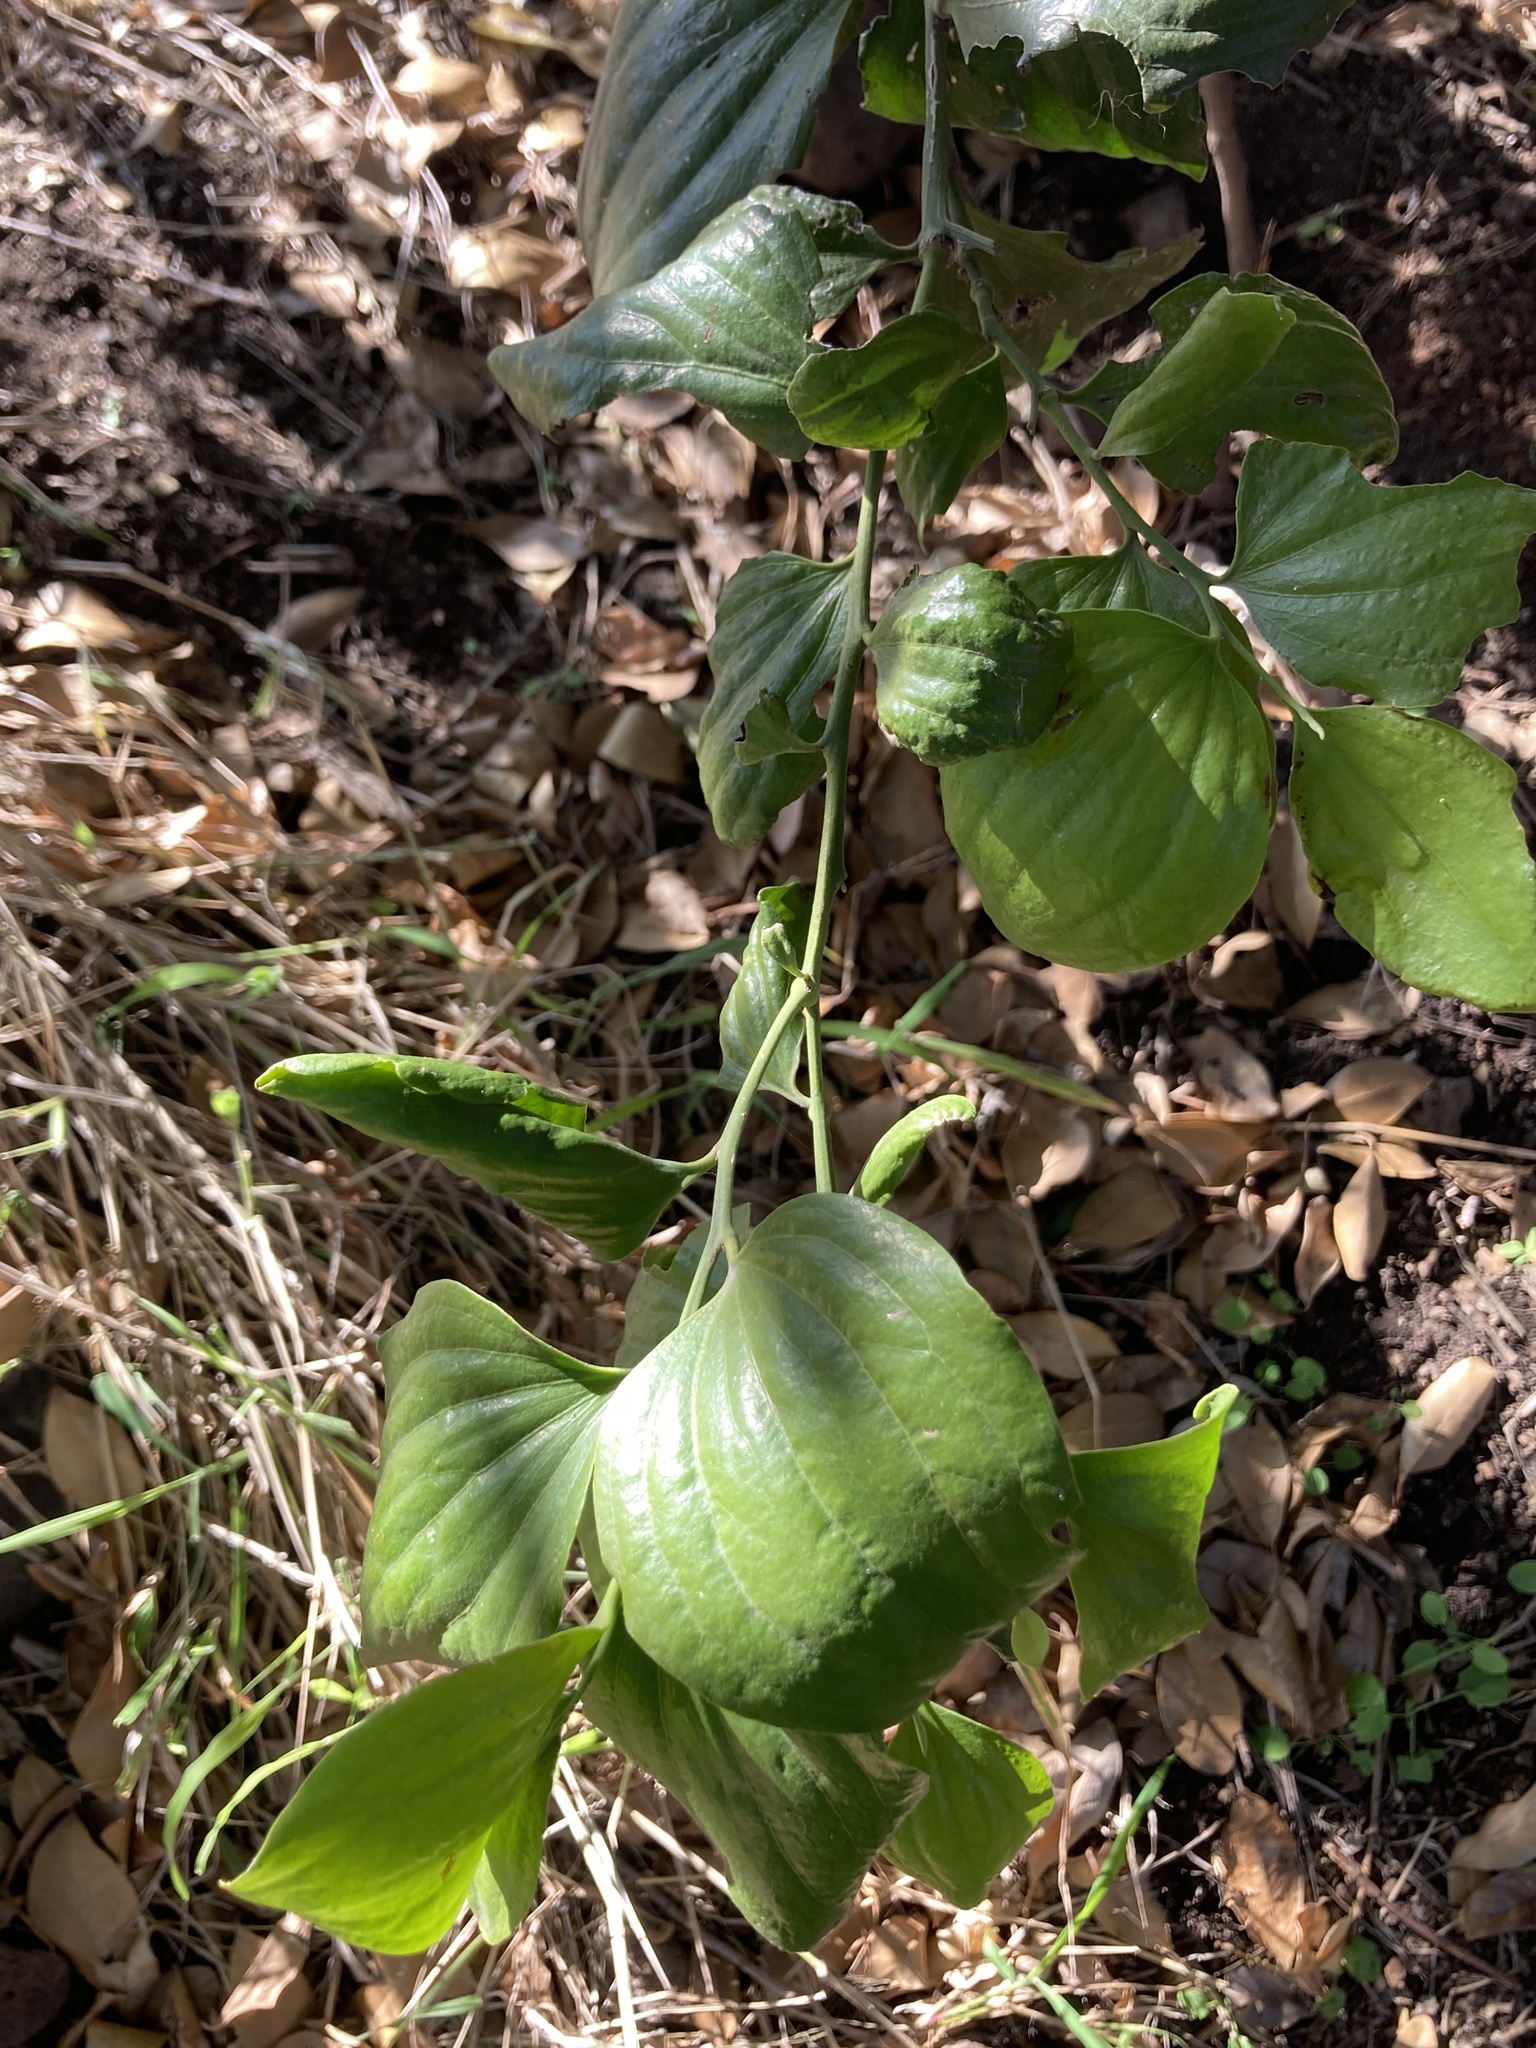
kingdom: Plantae
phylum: Tracheophyta
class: Magnoliopsida
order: Santalales
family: Santalaceae
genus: Exocarpos
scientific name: Exocarpos latifolius
